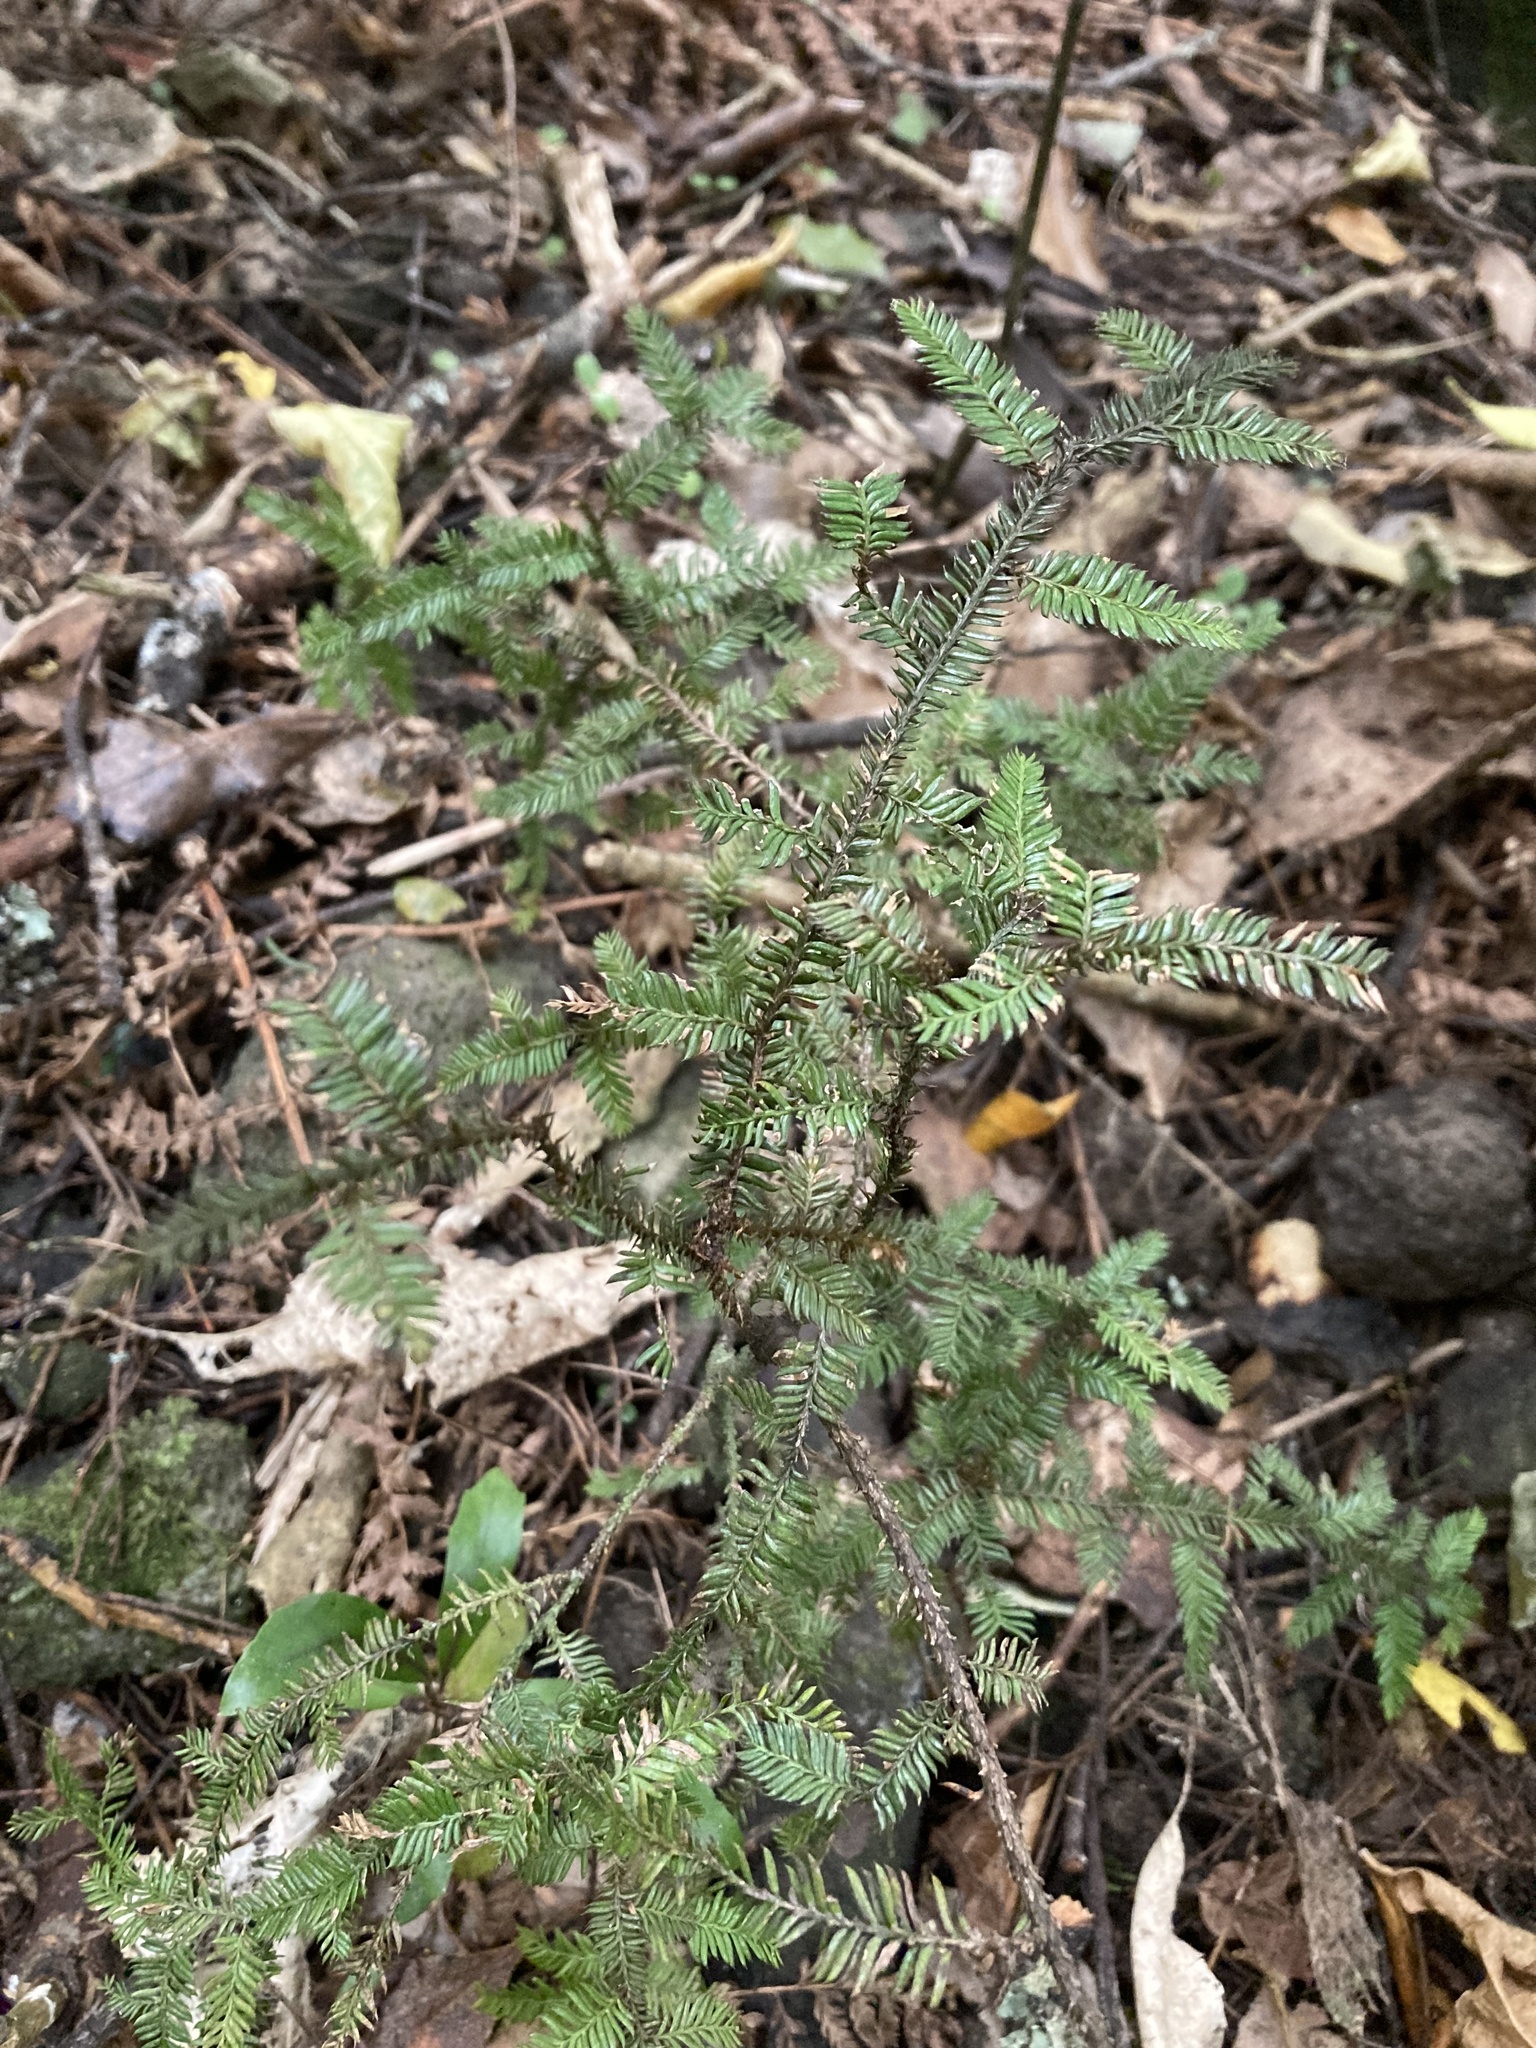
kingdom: Plantae
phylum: Tracheophyta
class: Pinopsida
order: Pinales
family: Podocarpaceae
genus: Dacrycarpus
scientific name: Dacrycarpus dacrydioides
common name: White pine
